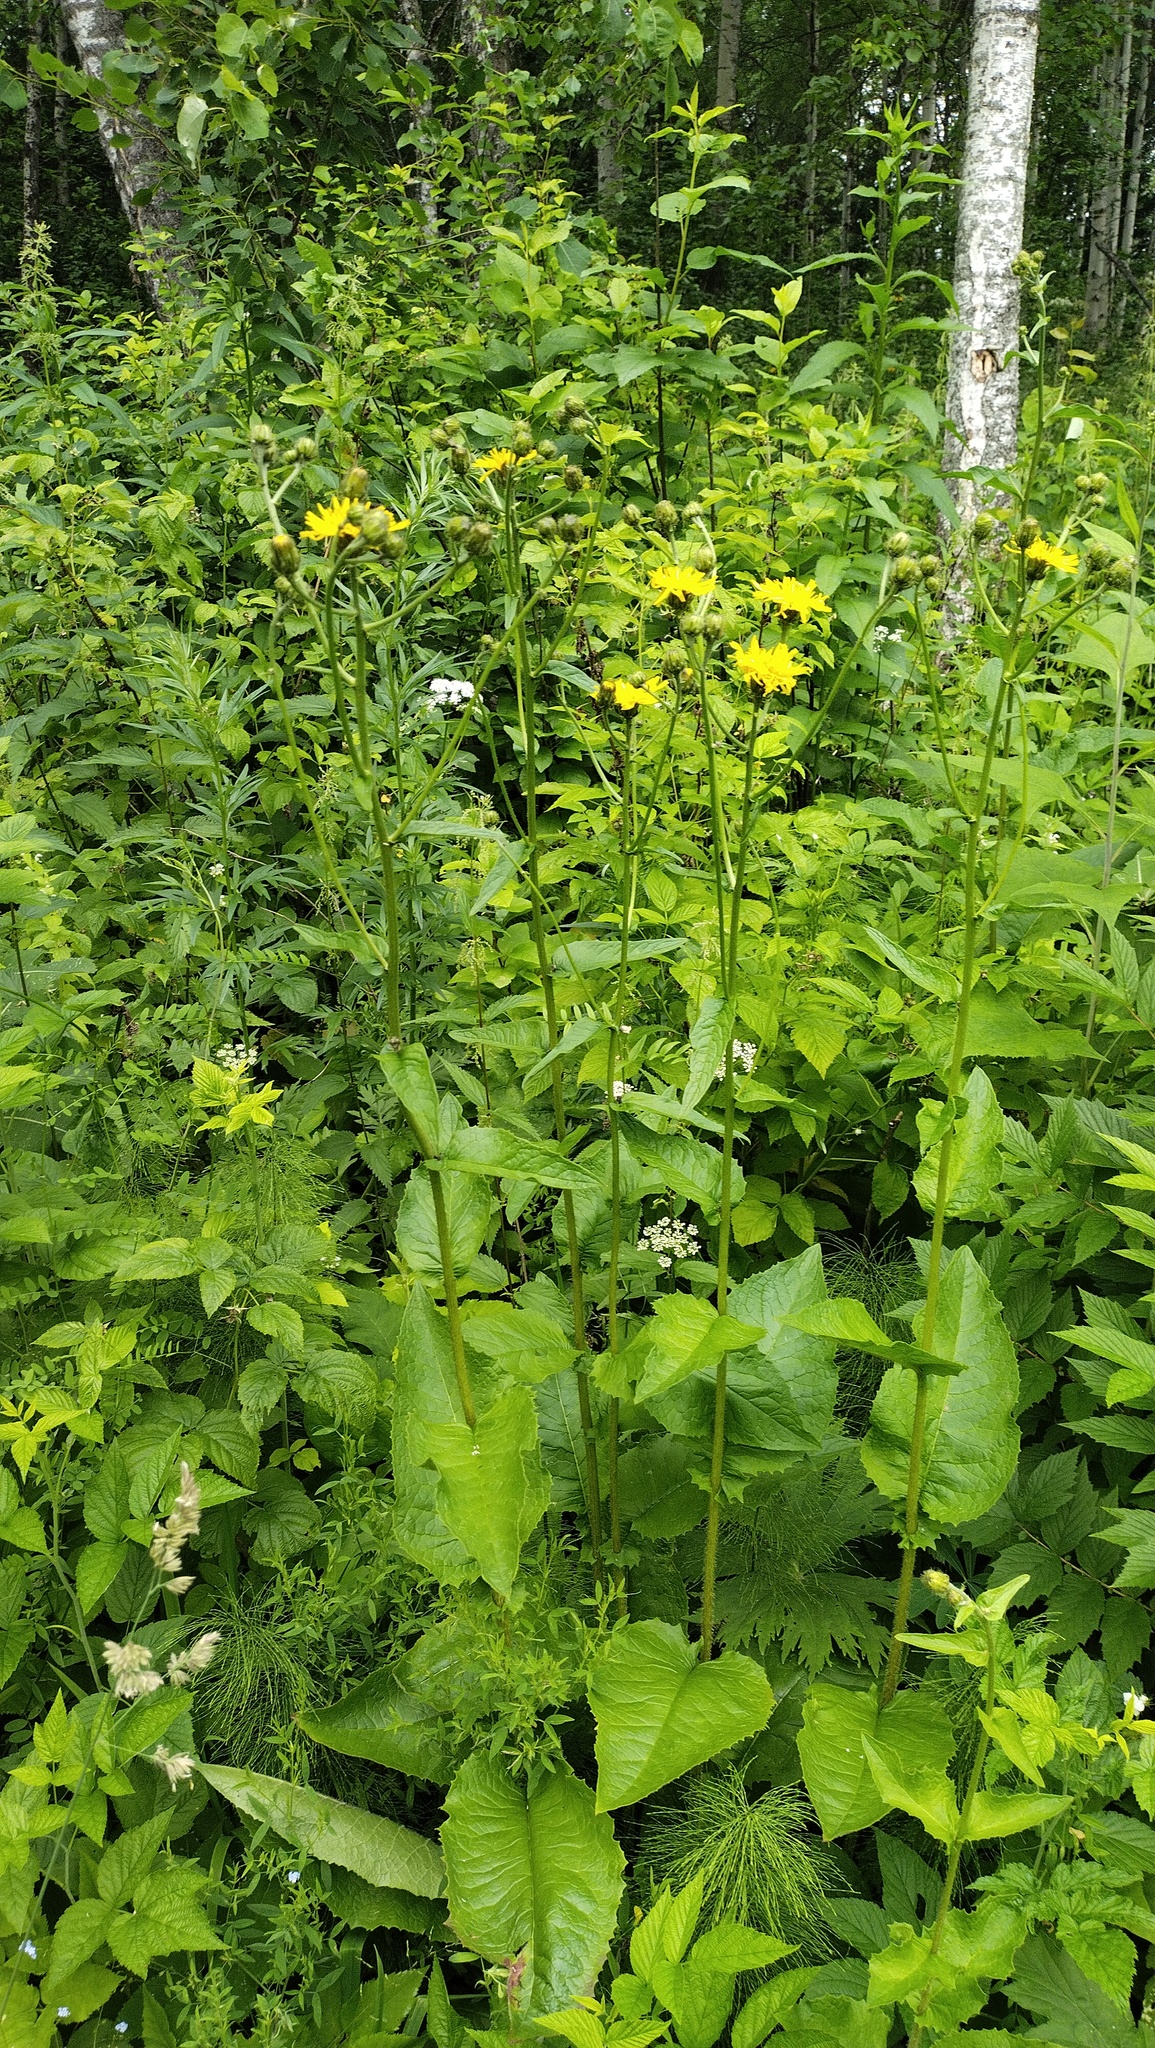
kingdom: Plantae
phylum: Tracheophyta
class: Magnoliopsida
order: Asterales
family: Asteraceae
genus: Crepis
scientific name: Crepis sibirica
